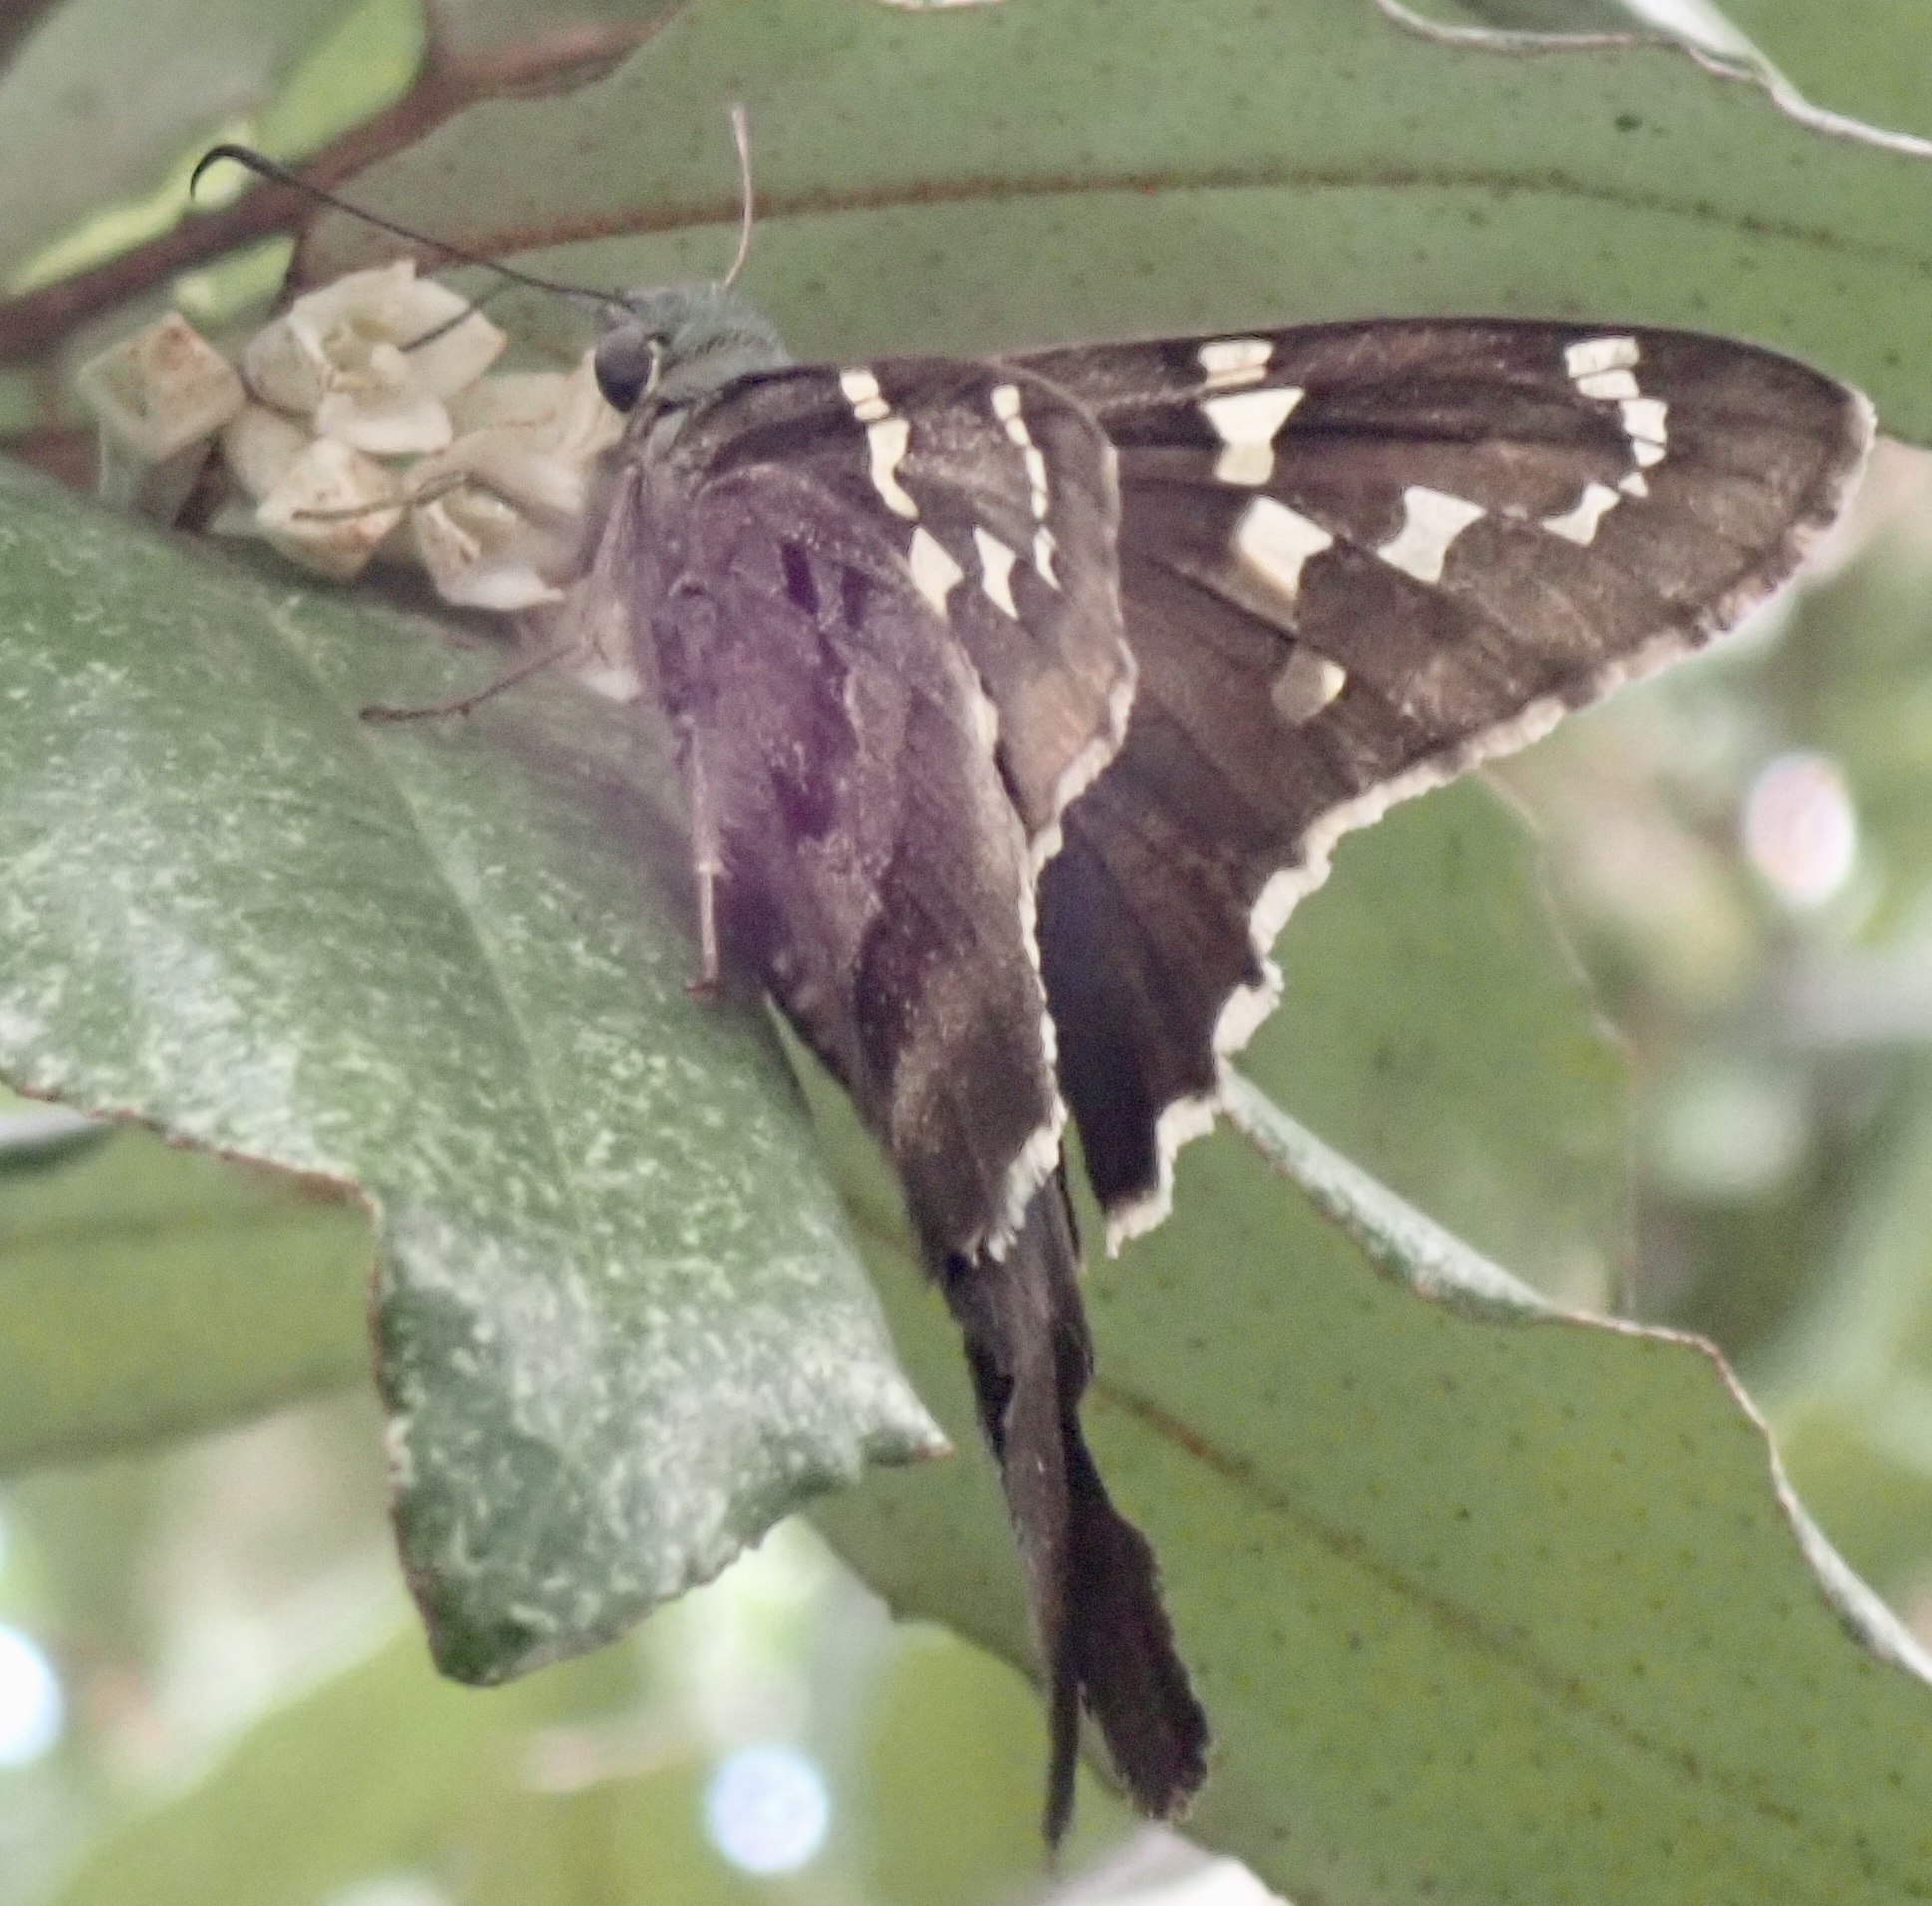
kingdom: Animalia
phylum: Arthropoda
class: Insecta
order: Lepidoptera
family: Hesperiidae
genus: Urbanus
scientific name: Urbanus proteus
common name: Long-tailed skipper
